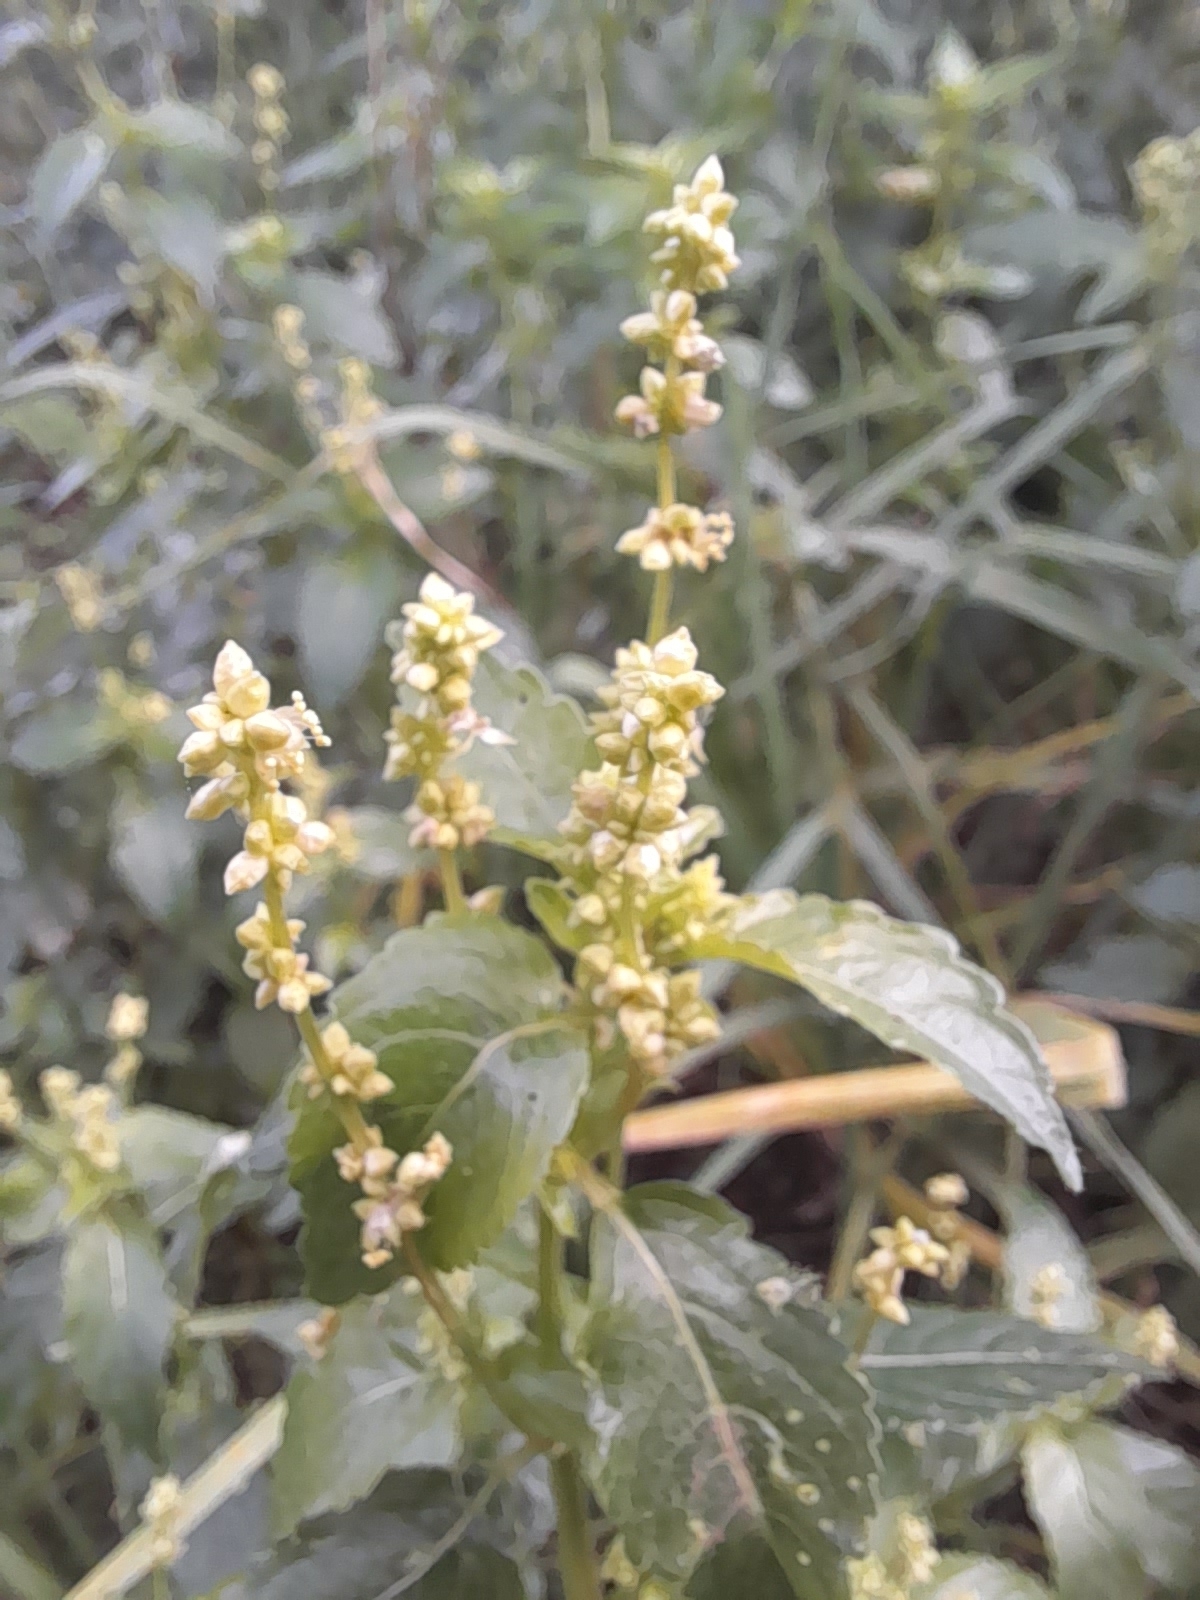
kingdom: Plantae
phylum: Tracheophyta
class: Magnoliopsida
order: Malpighiales
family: Euphorbiaceae
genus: Mercurialis
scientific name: Mercurialis annua
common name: Annual mercury
